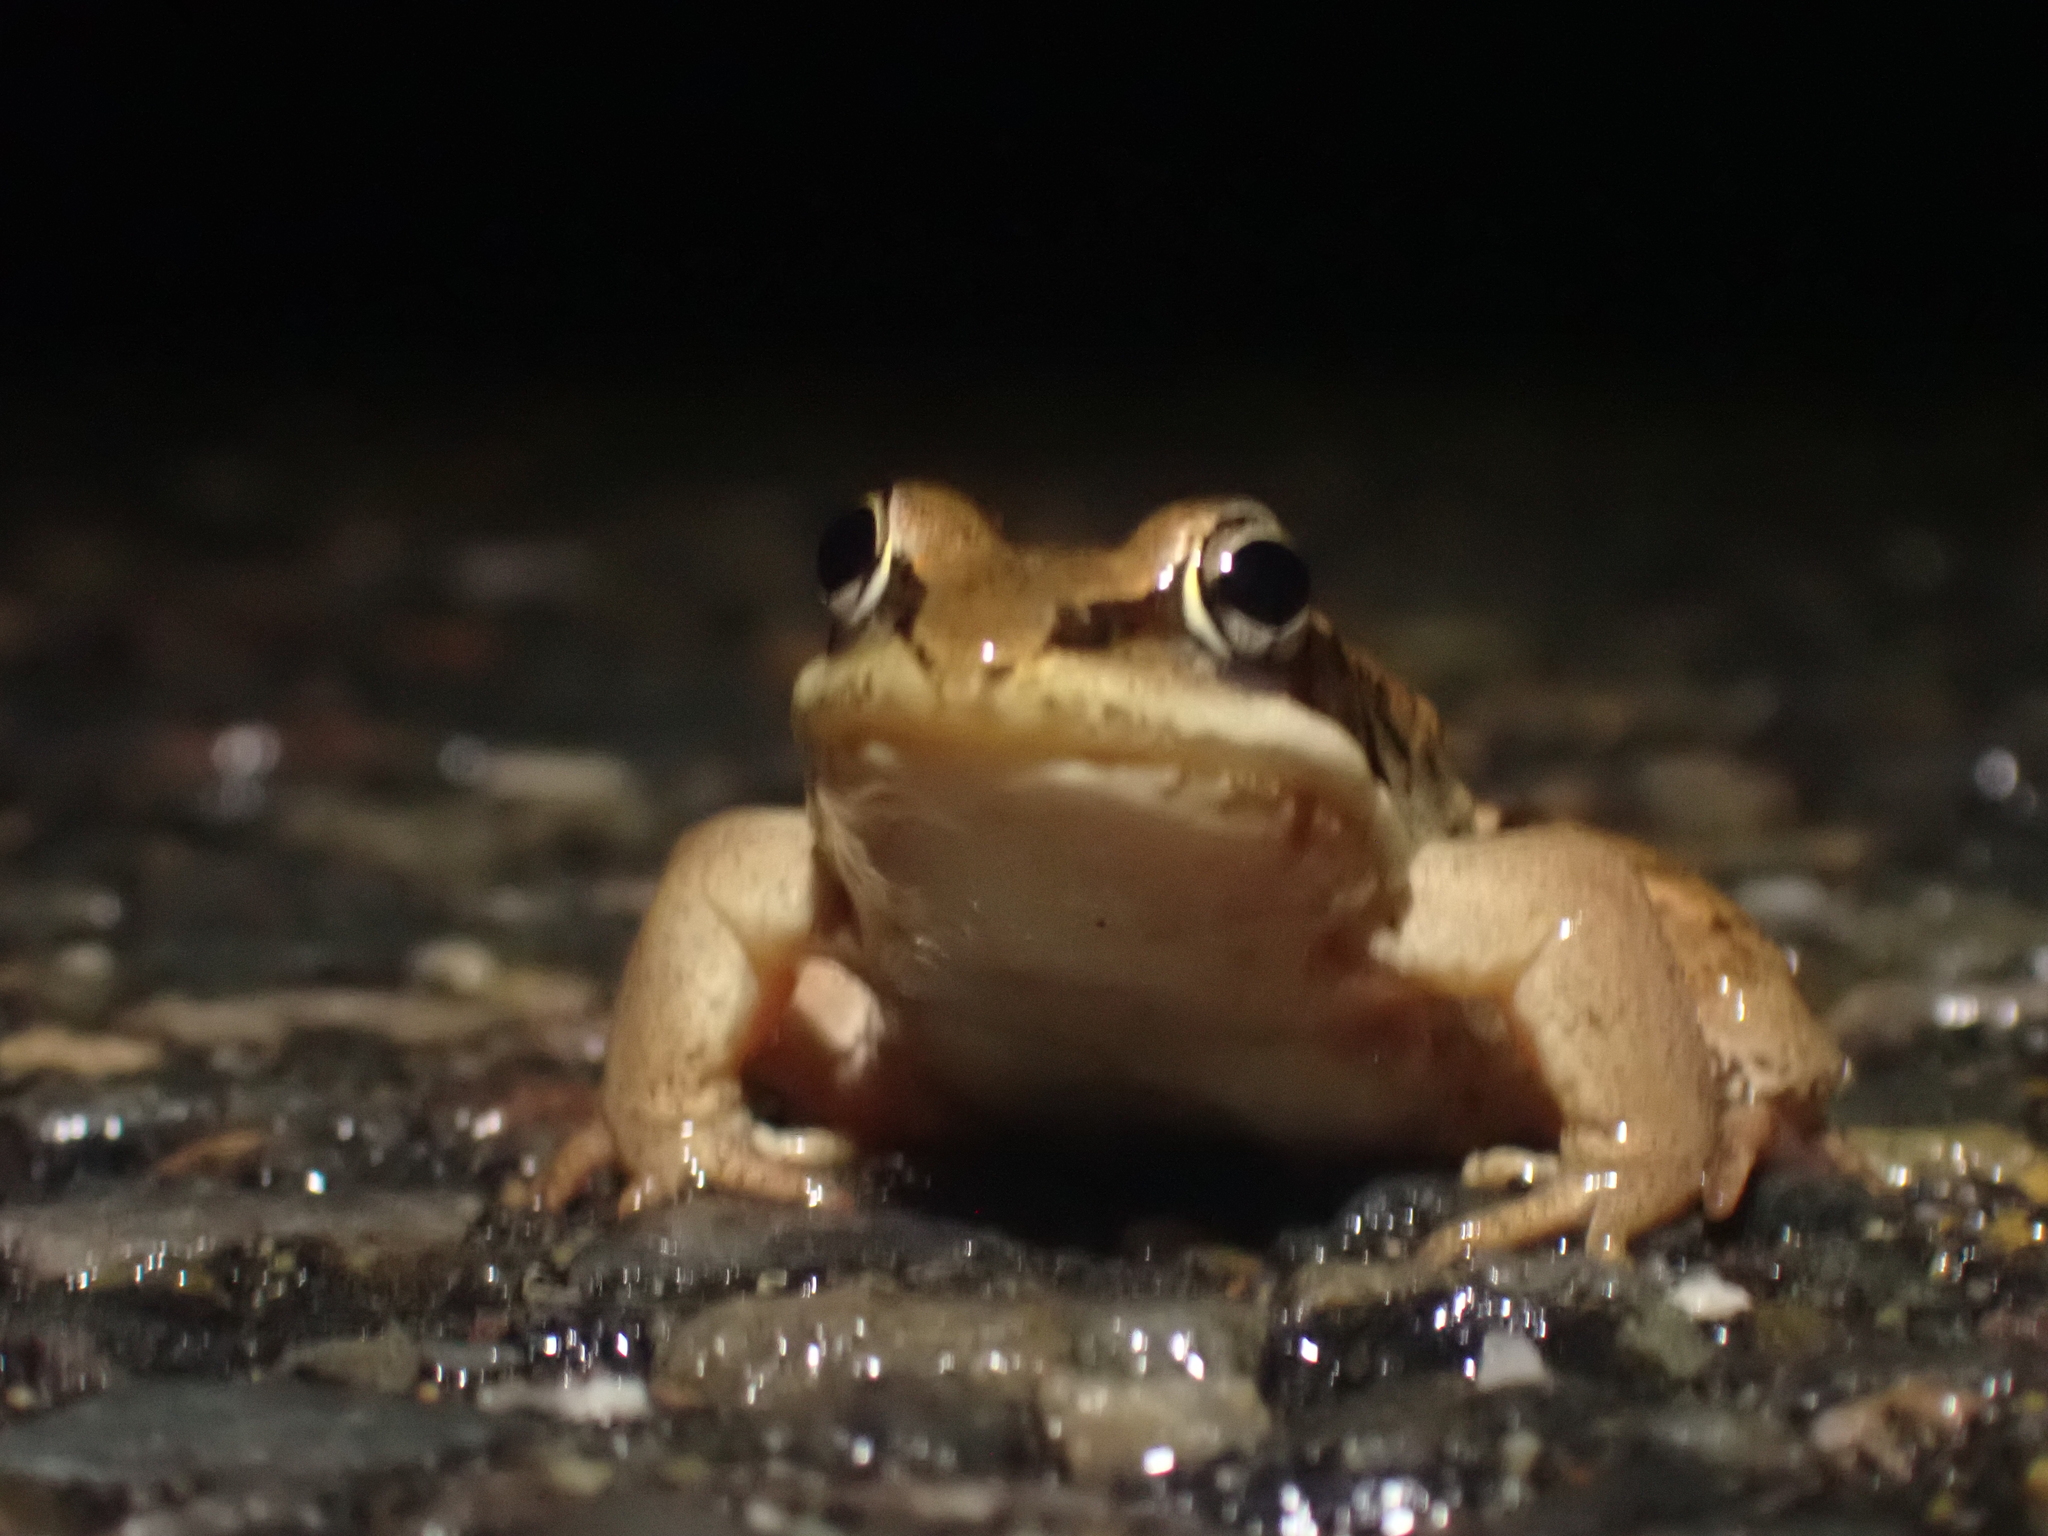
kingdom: Animalia
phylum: Chordata
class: Amphibia
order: Anura
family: Ranidae
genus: Lithobates
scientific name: Lithobates sylvaticus
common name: Wood frog
